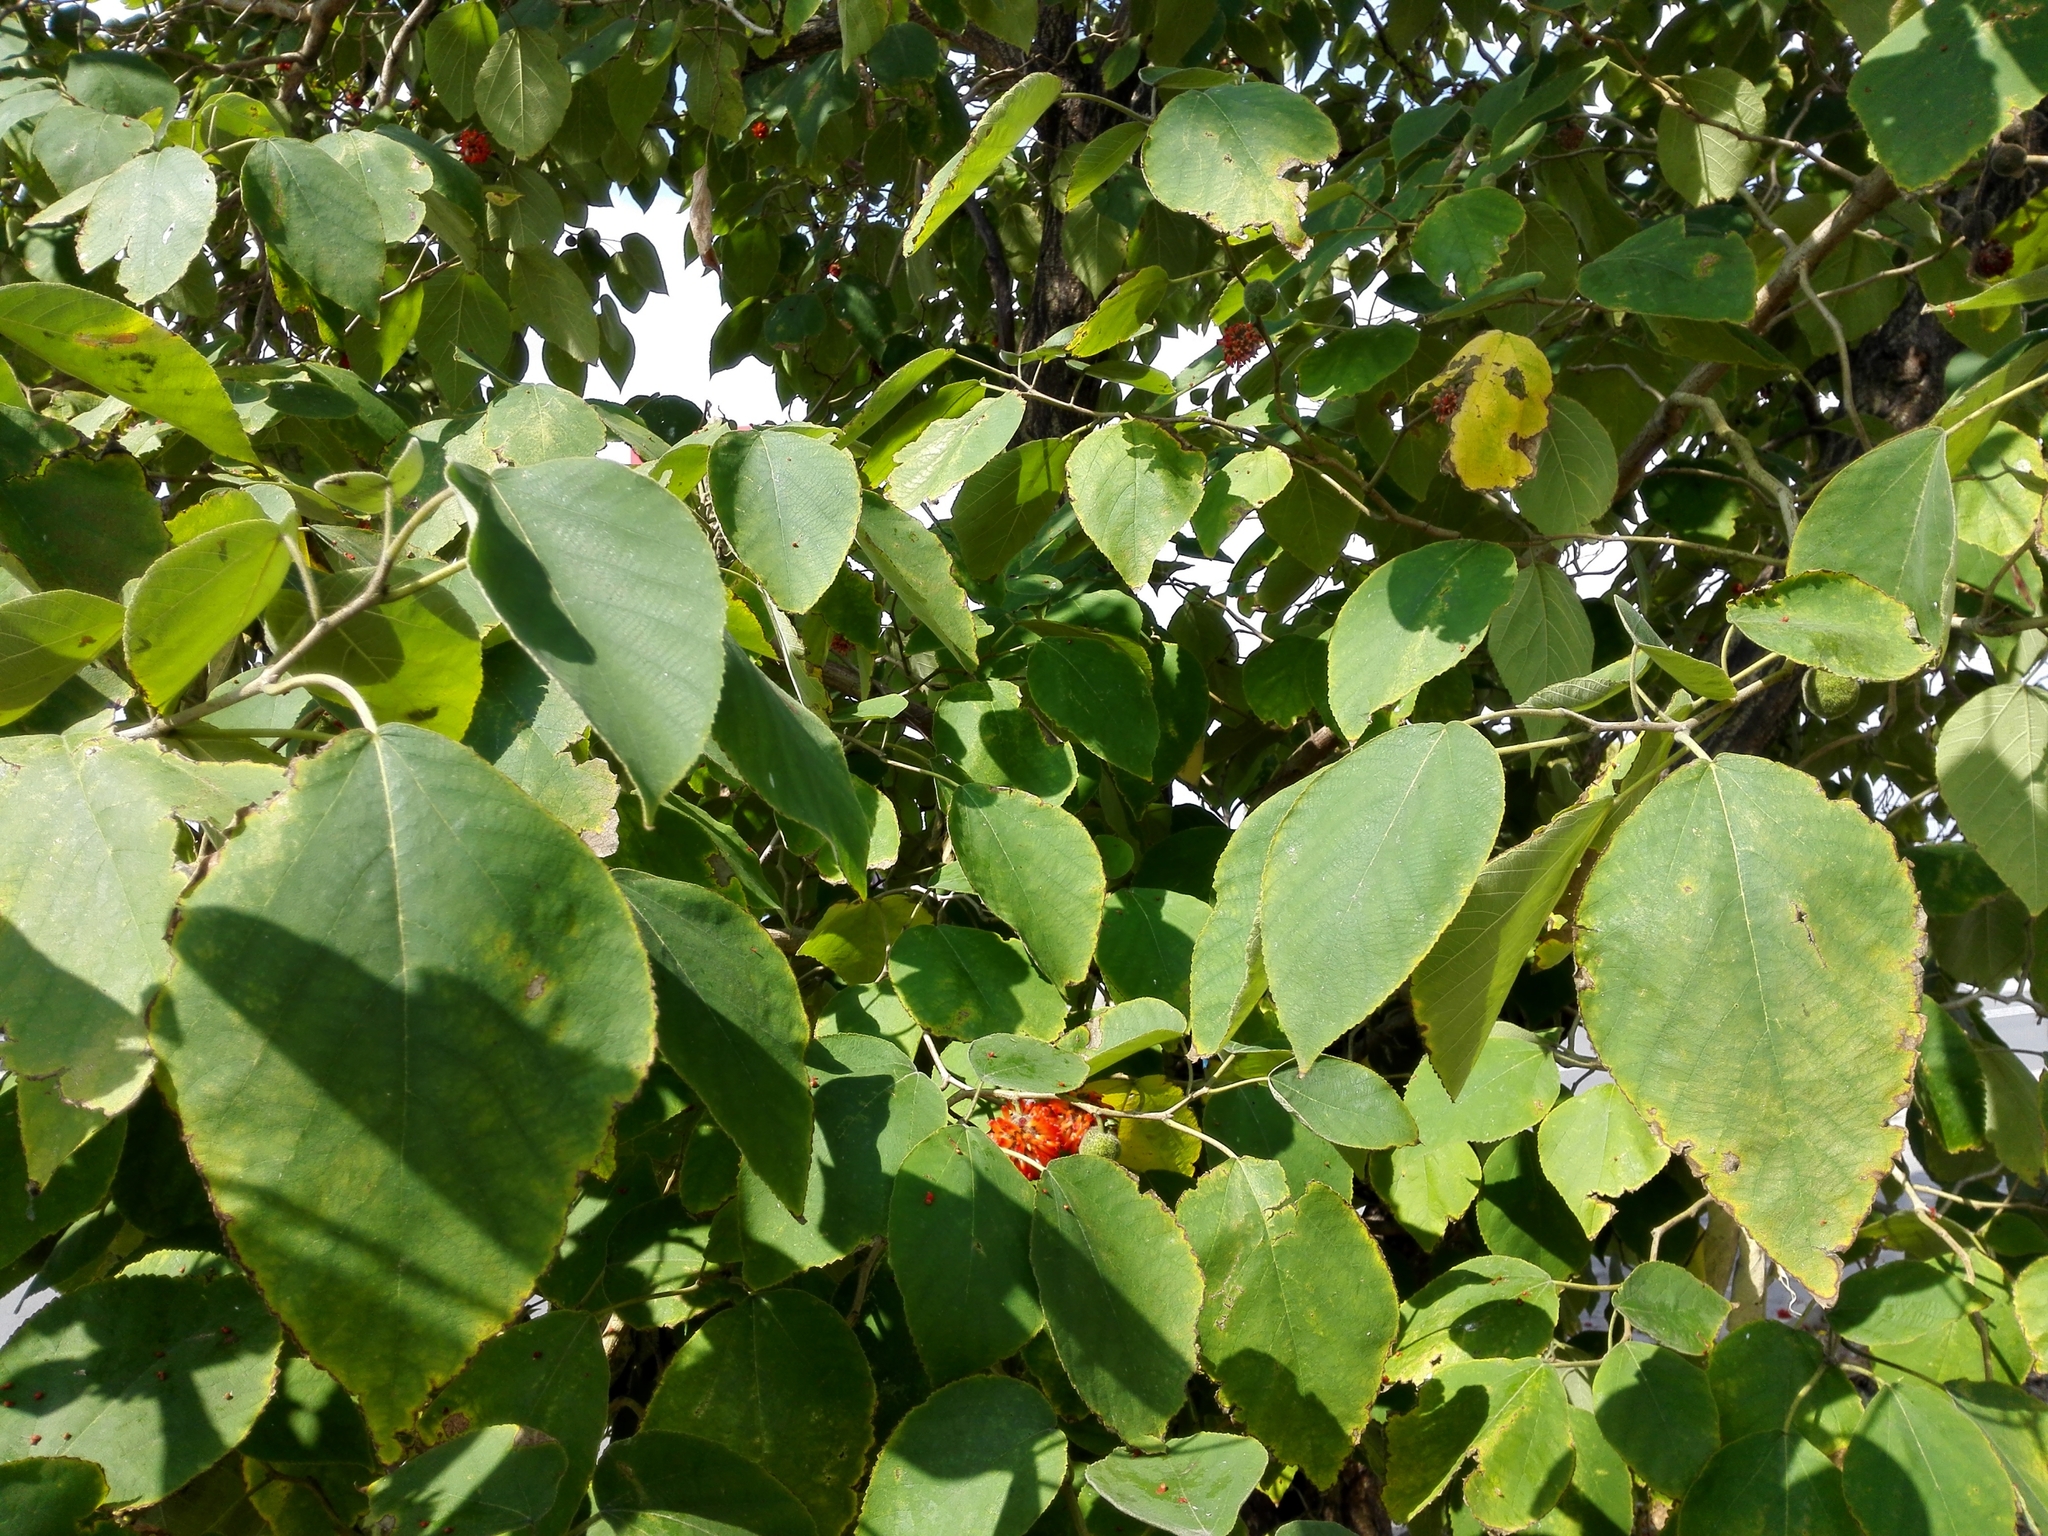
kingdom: Plantae
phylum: Tracheophyta
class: Magnoliopsida
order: Rosales
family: Moraceae
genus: Broussonetia
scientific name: Broussonetia papyrifera
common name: Paper mulberry
